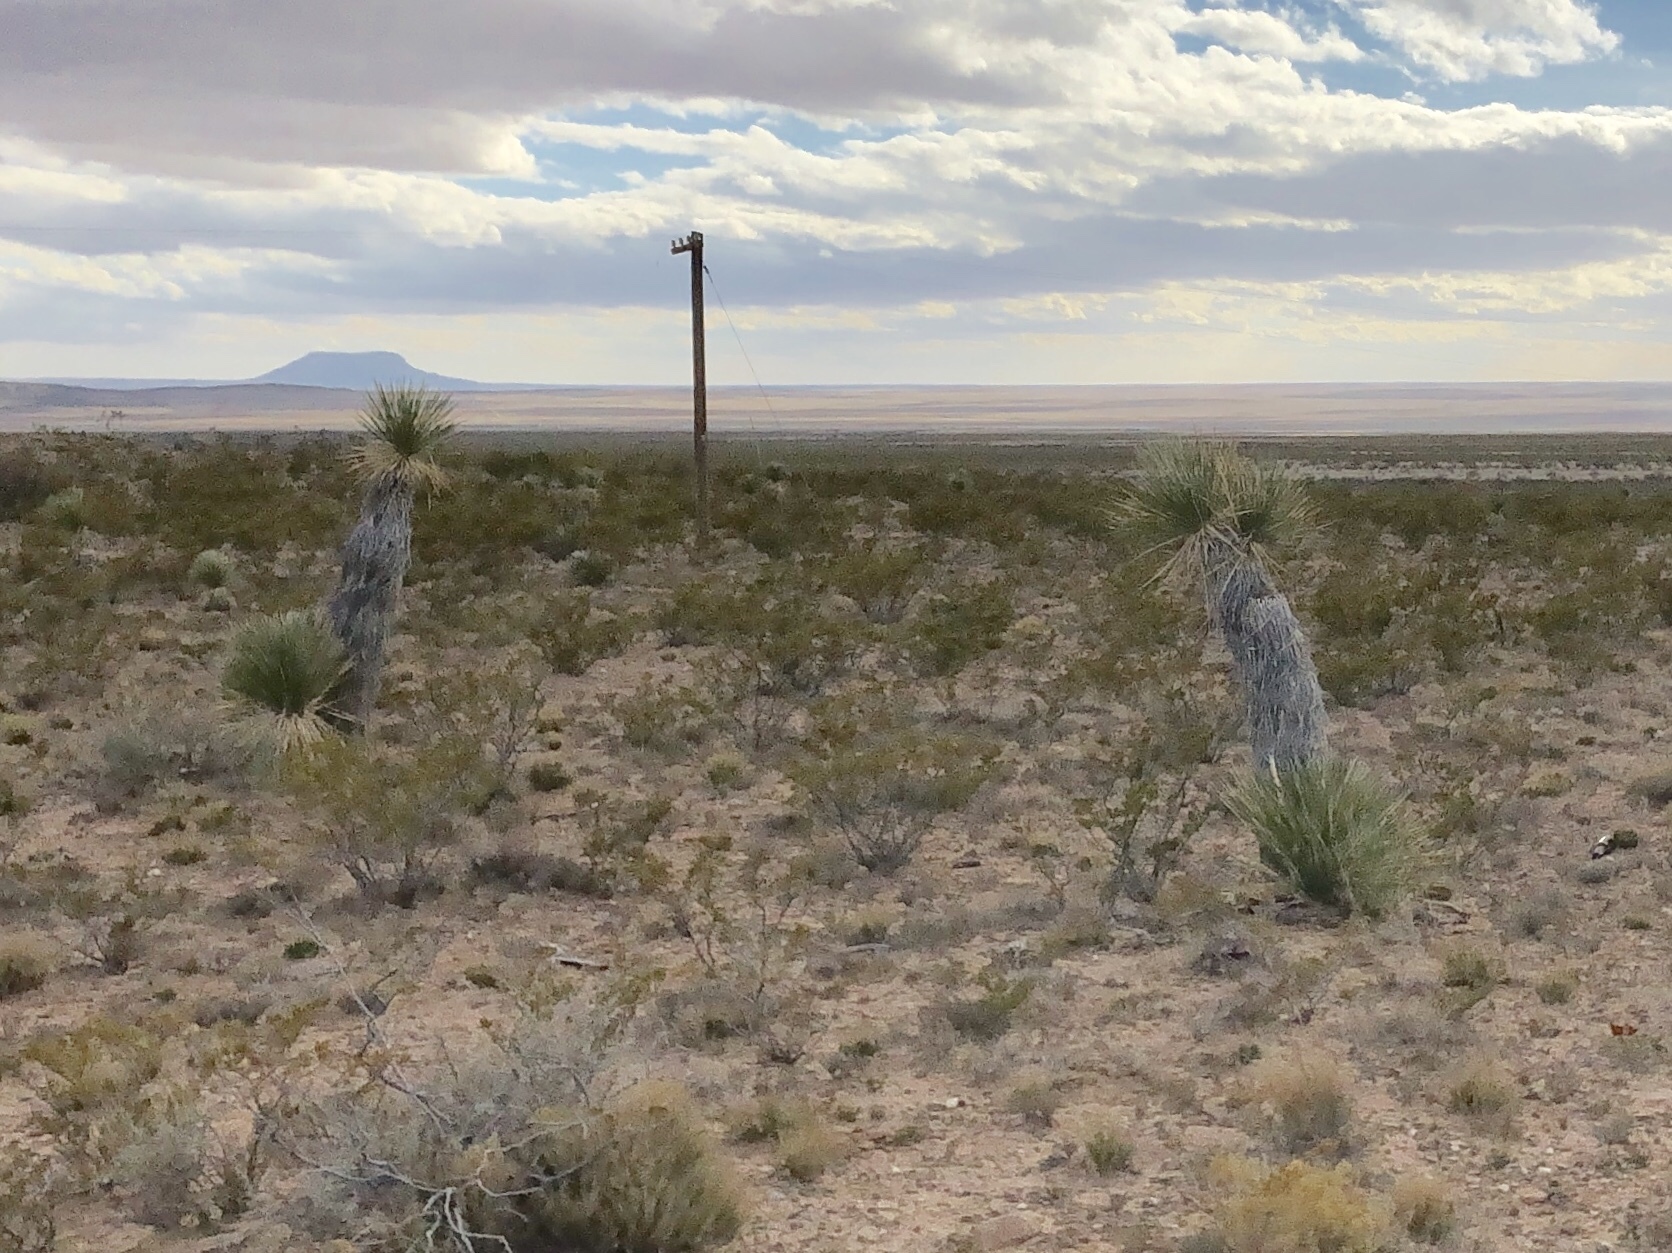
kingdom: Plantae
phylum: Tracheophyta
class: Liliopsida
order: Asparagales
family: Asparagaceae
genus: Yucca
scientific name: Yucca elata
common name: Palmella
